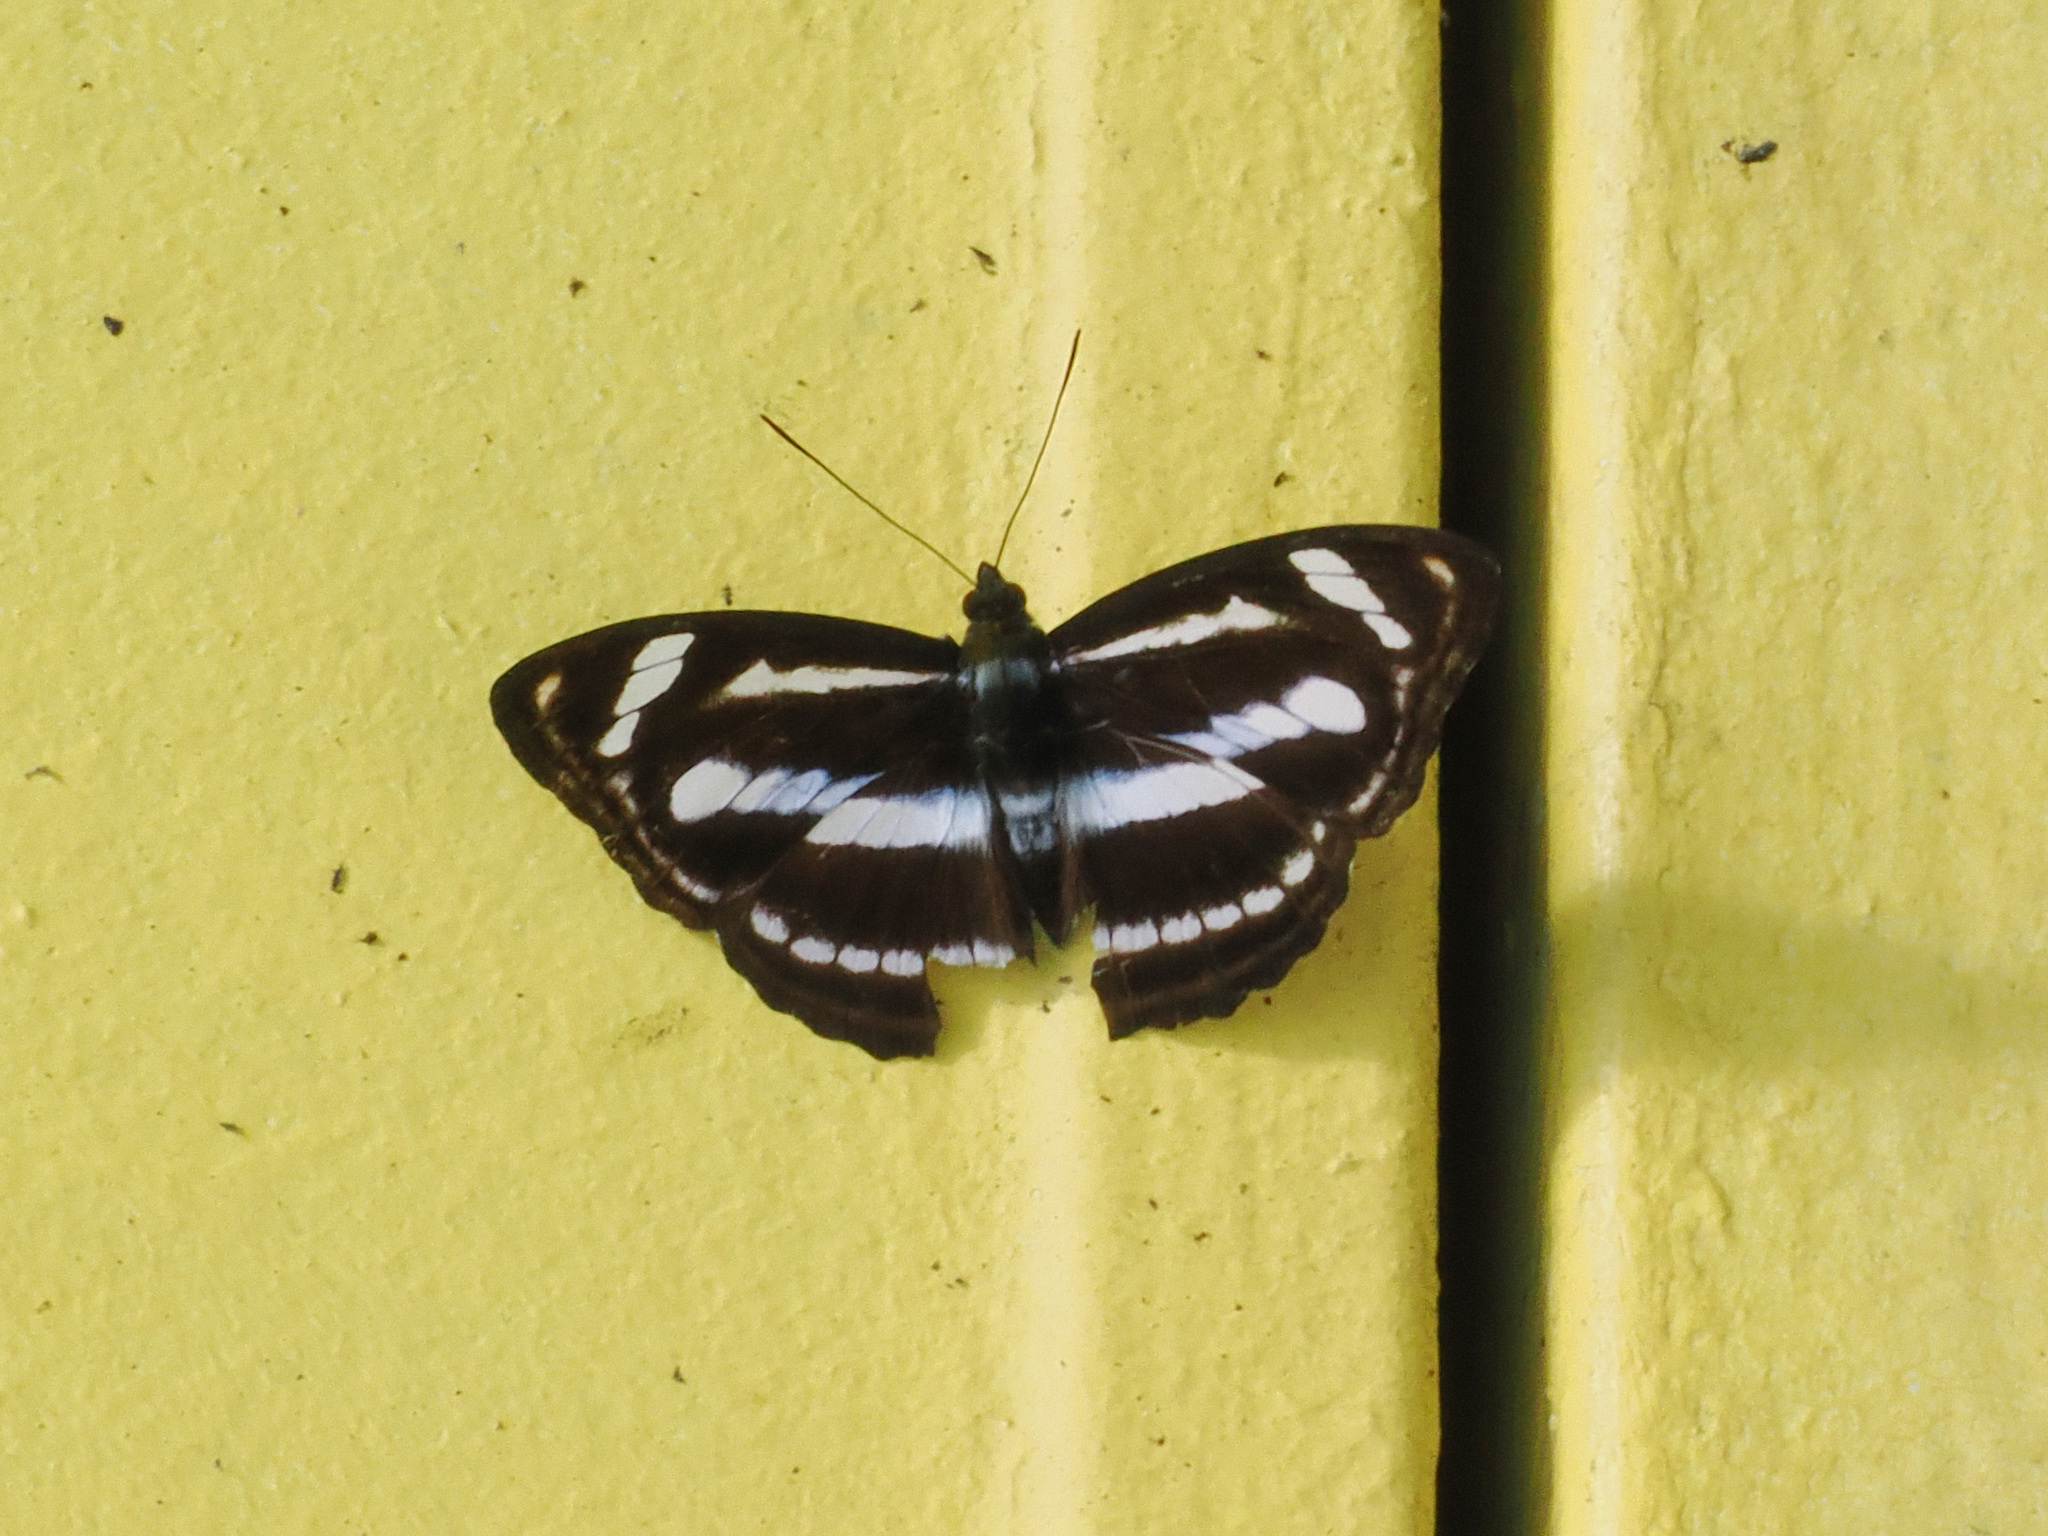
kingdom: Animalia
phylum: Arthropoda
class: Insecta
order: Lepidoptera
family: Nymphalidae
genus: Parathyma
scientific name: Parathyma nefte
